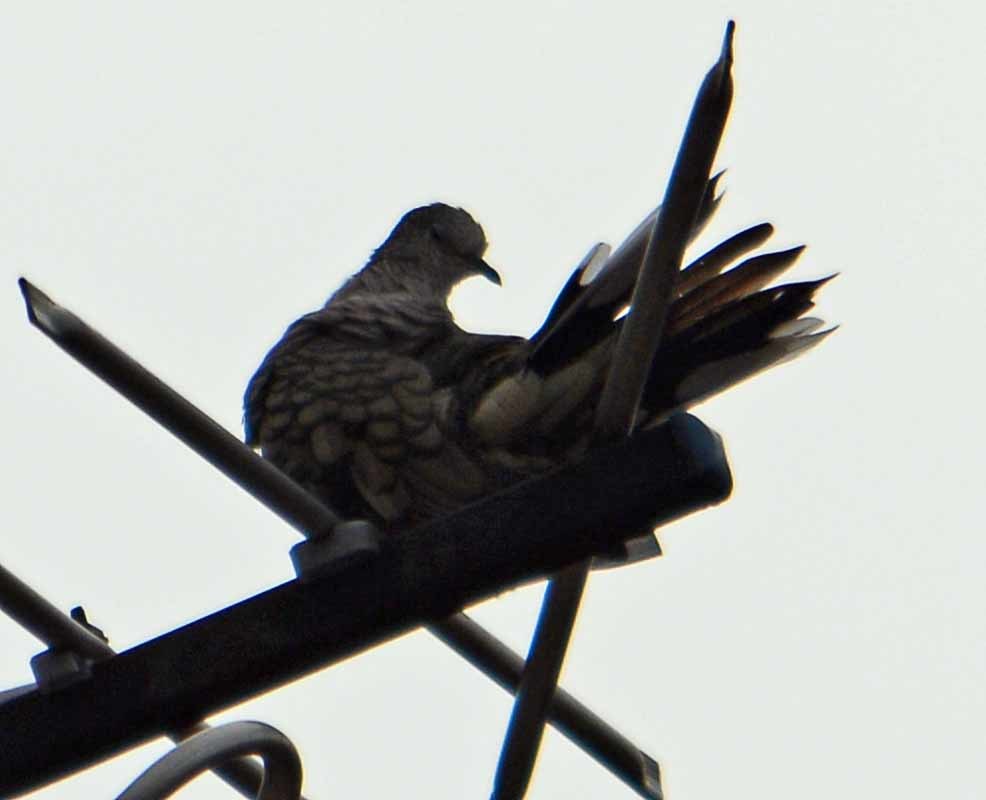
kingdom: Animalia
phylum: Chordata
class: Aves
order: Columbiformes
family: Columbidae
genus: Columbina
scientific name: Columbina inca
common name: Inca dove
